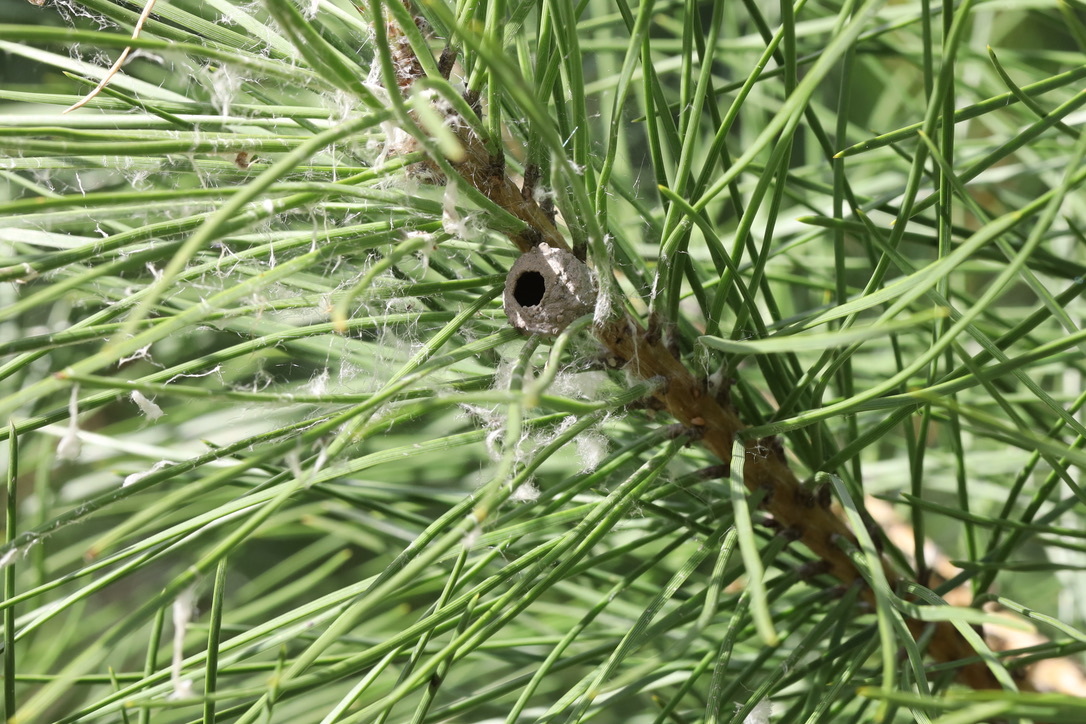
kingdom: Animalia
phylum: Arthropoda
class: Insecta
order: Hymenoptera
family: Vespidae
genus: Eumenes
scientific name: Eumenes
